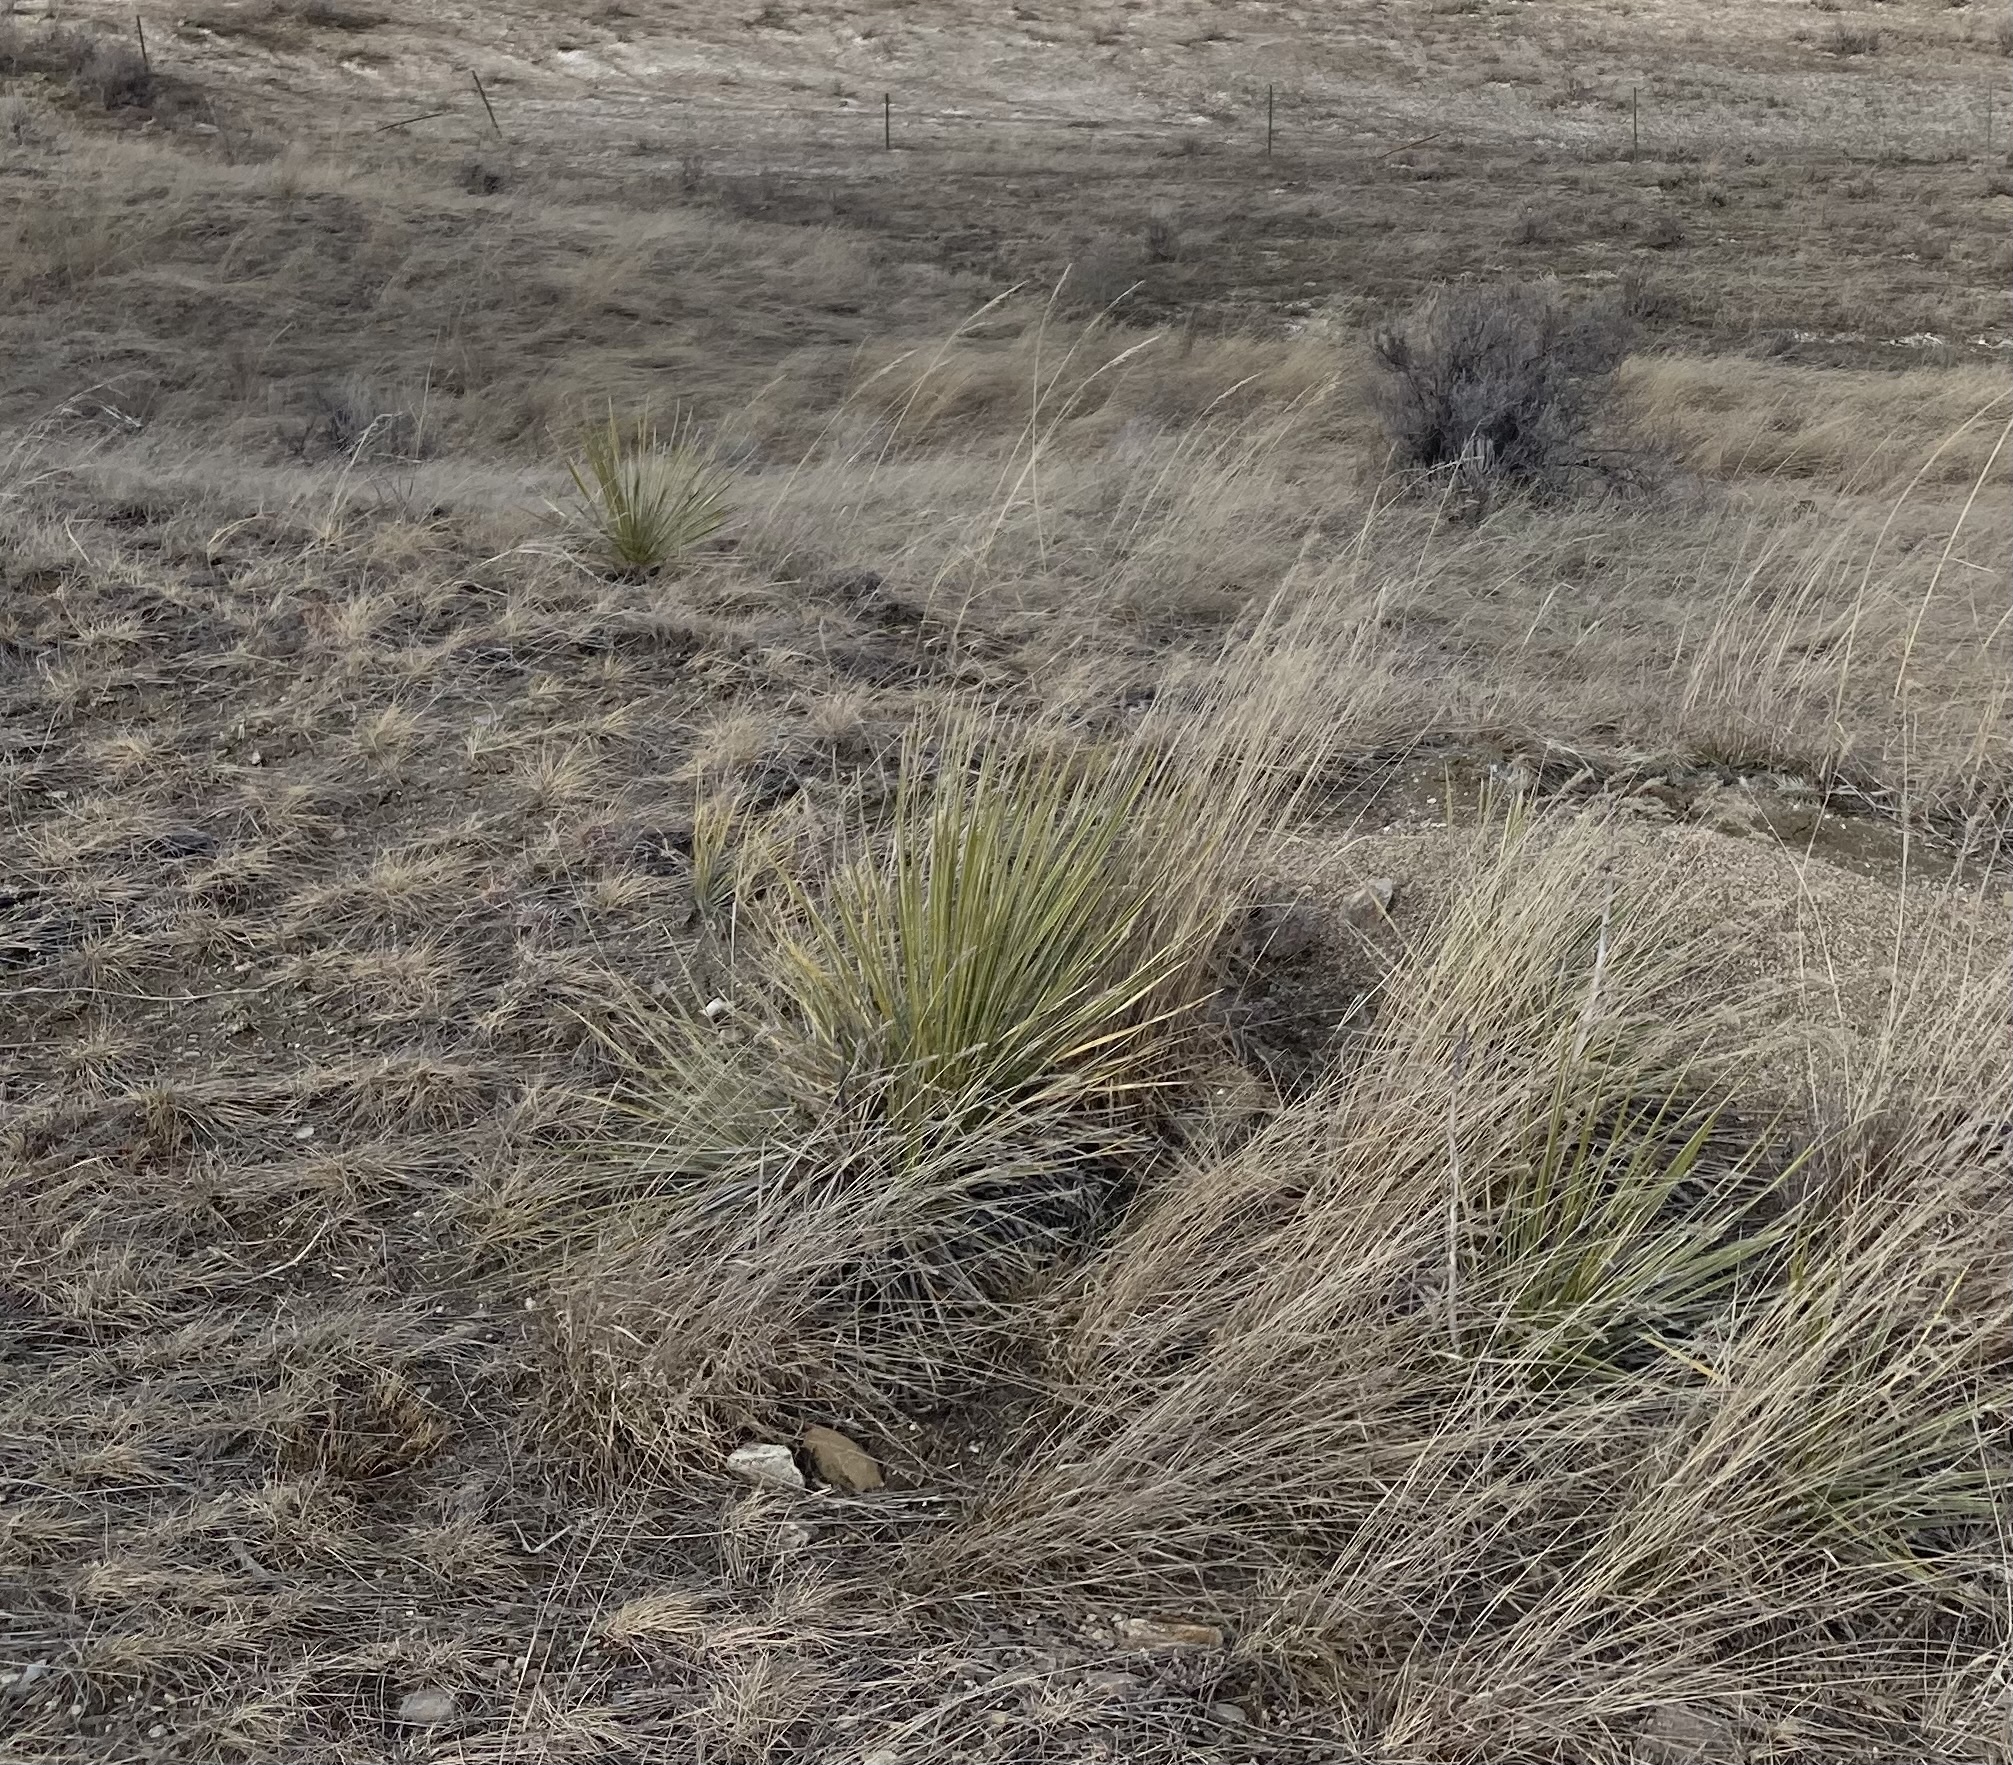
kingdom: Plantae
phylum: Tracheophyta
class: Liliopsida
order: Asparagales
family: Asparagaceae
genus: Yucca
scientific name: Yucca glauca
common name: Great plains yucca
